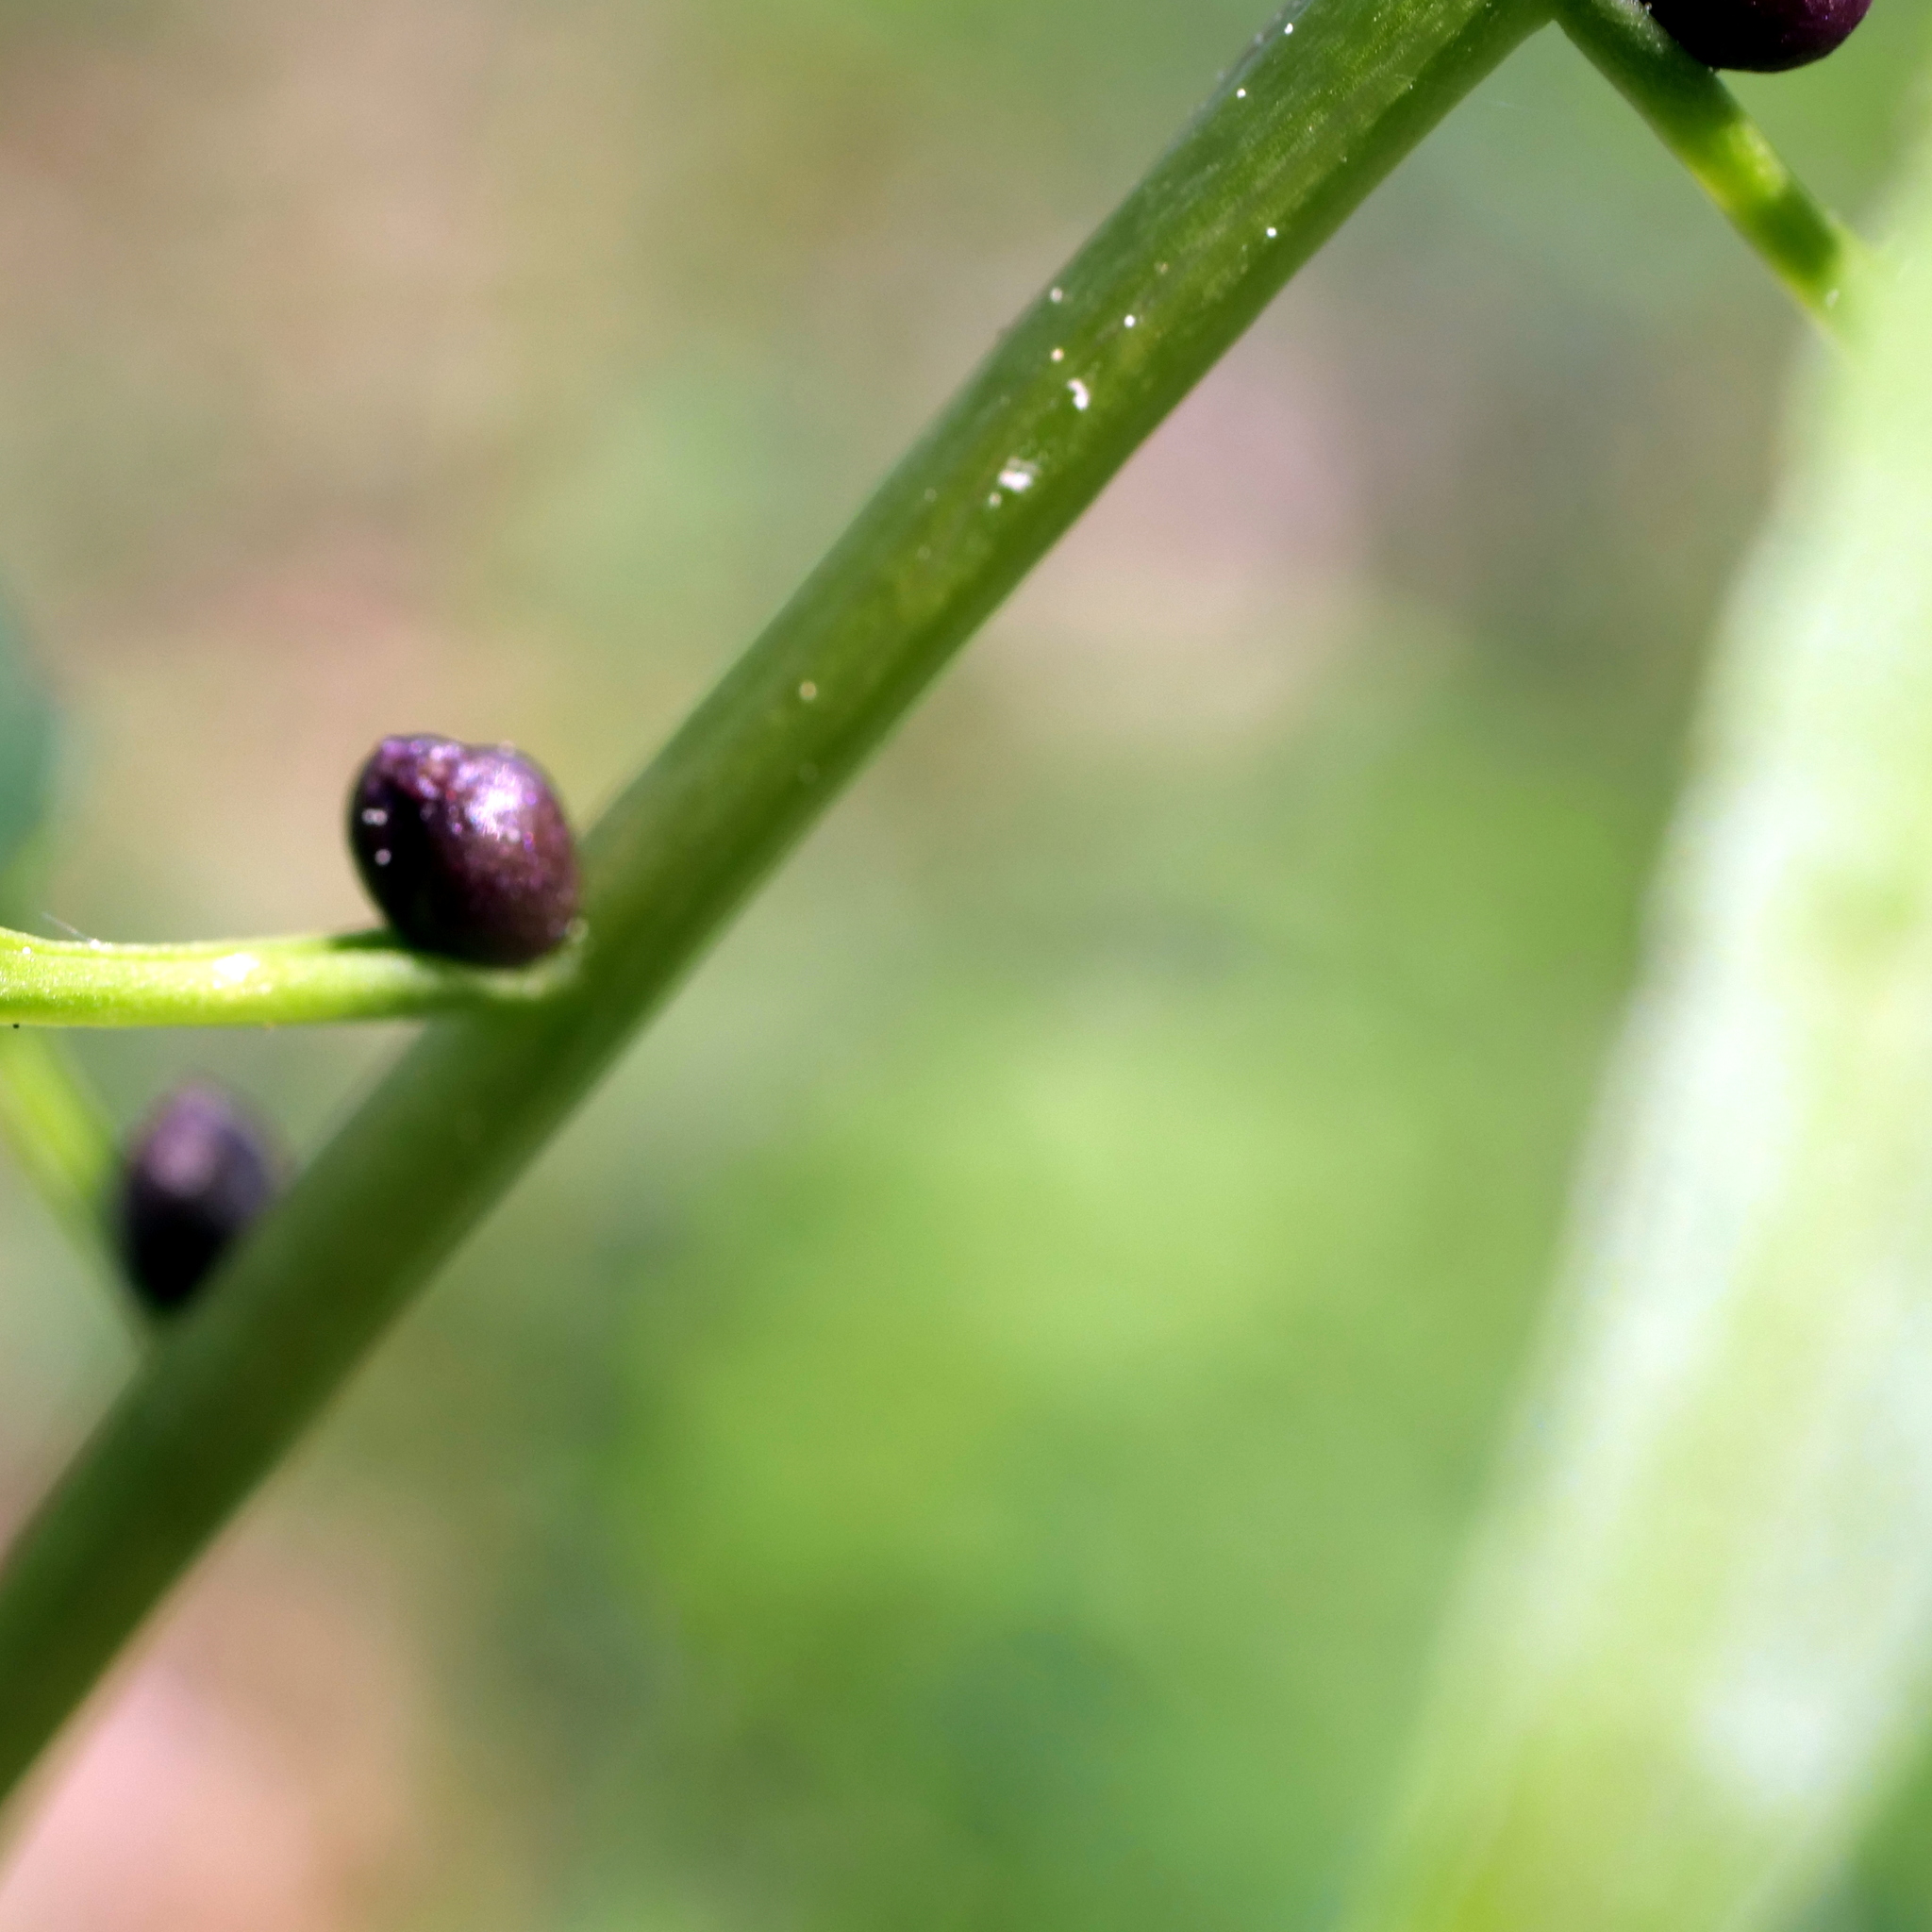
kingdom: Plantae
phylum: Tracheophyta
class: Magnoliopsida
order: Brassicales
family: Brassicaceae
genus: Cardamine
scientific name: Cardamine bulbifera
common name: Coralroot bittercress
